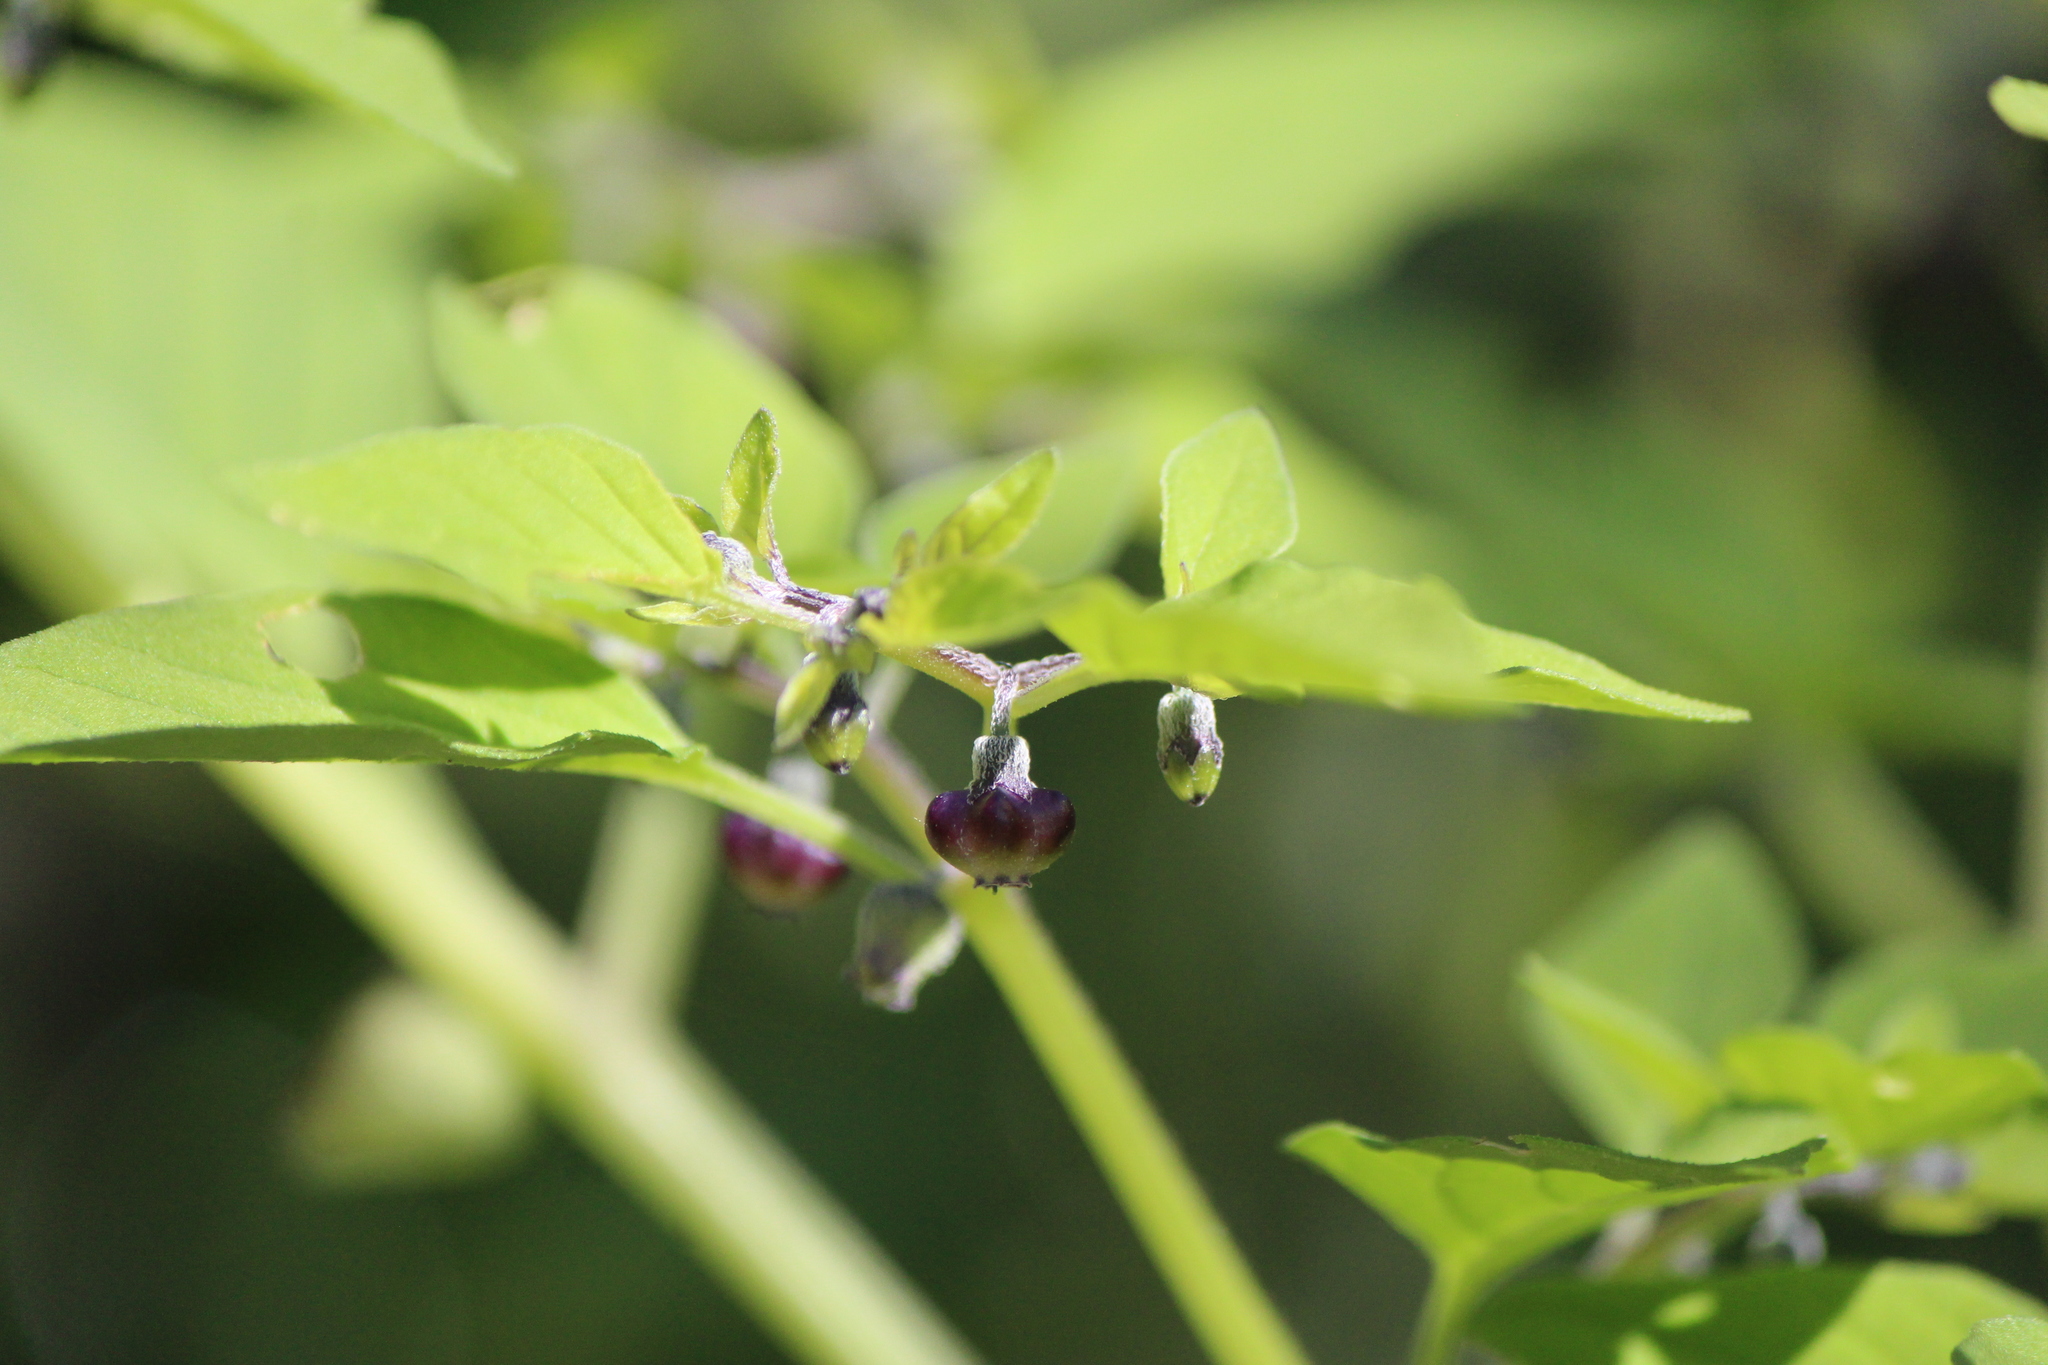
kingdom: Plantae
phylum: Tracheophyta
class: Magnoliopsida
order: Solanales
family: Solanaceae
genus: Physalis
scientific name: Physalis solanacea
